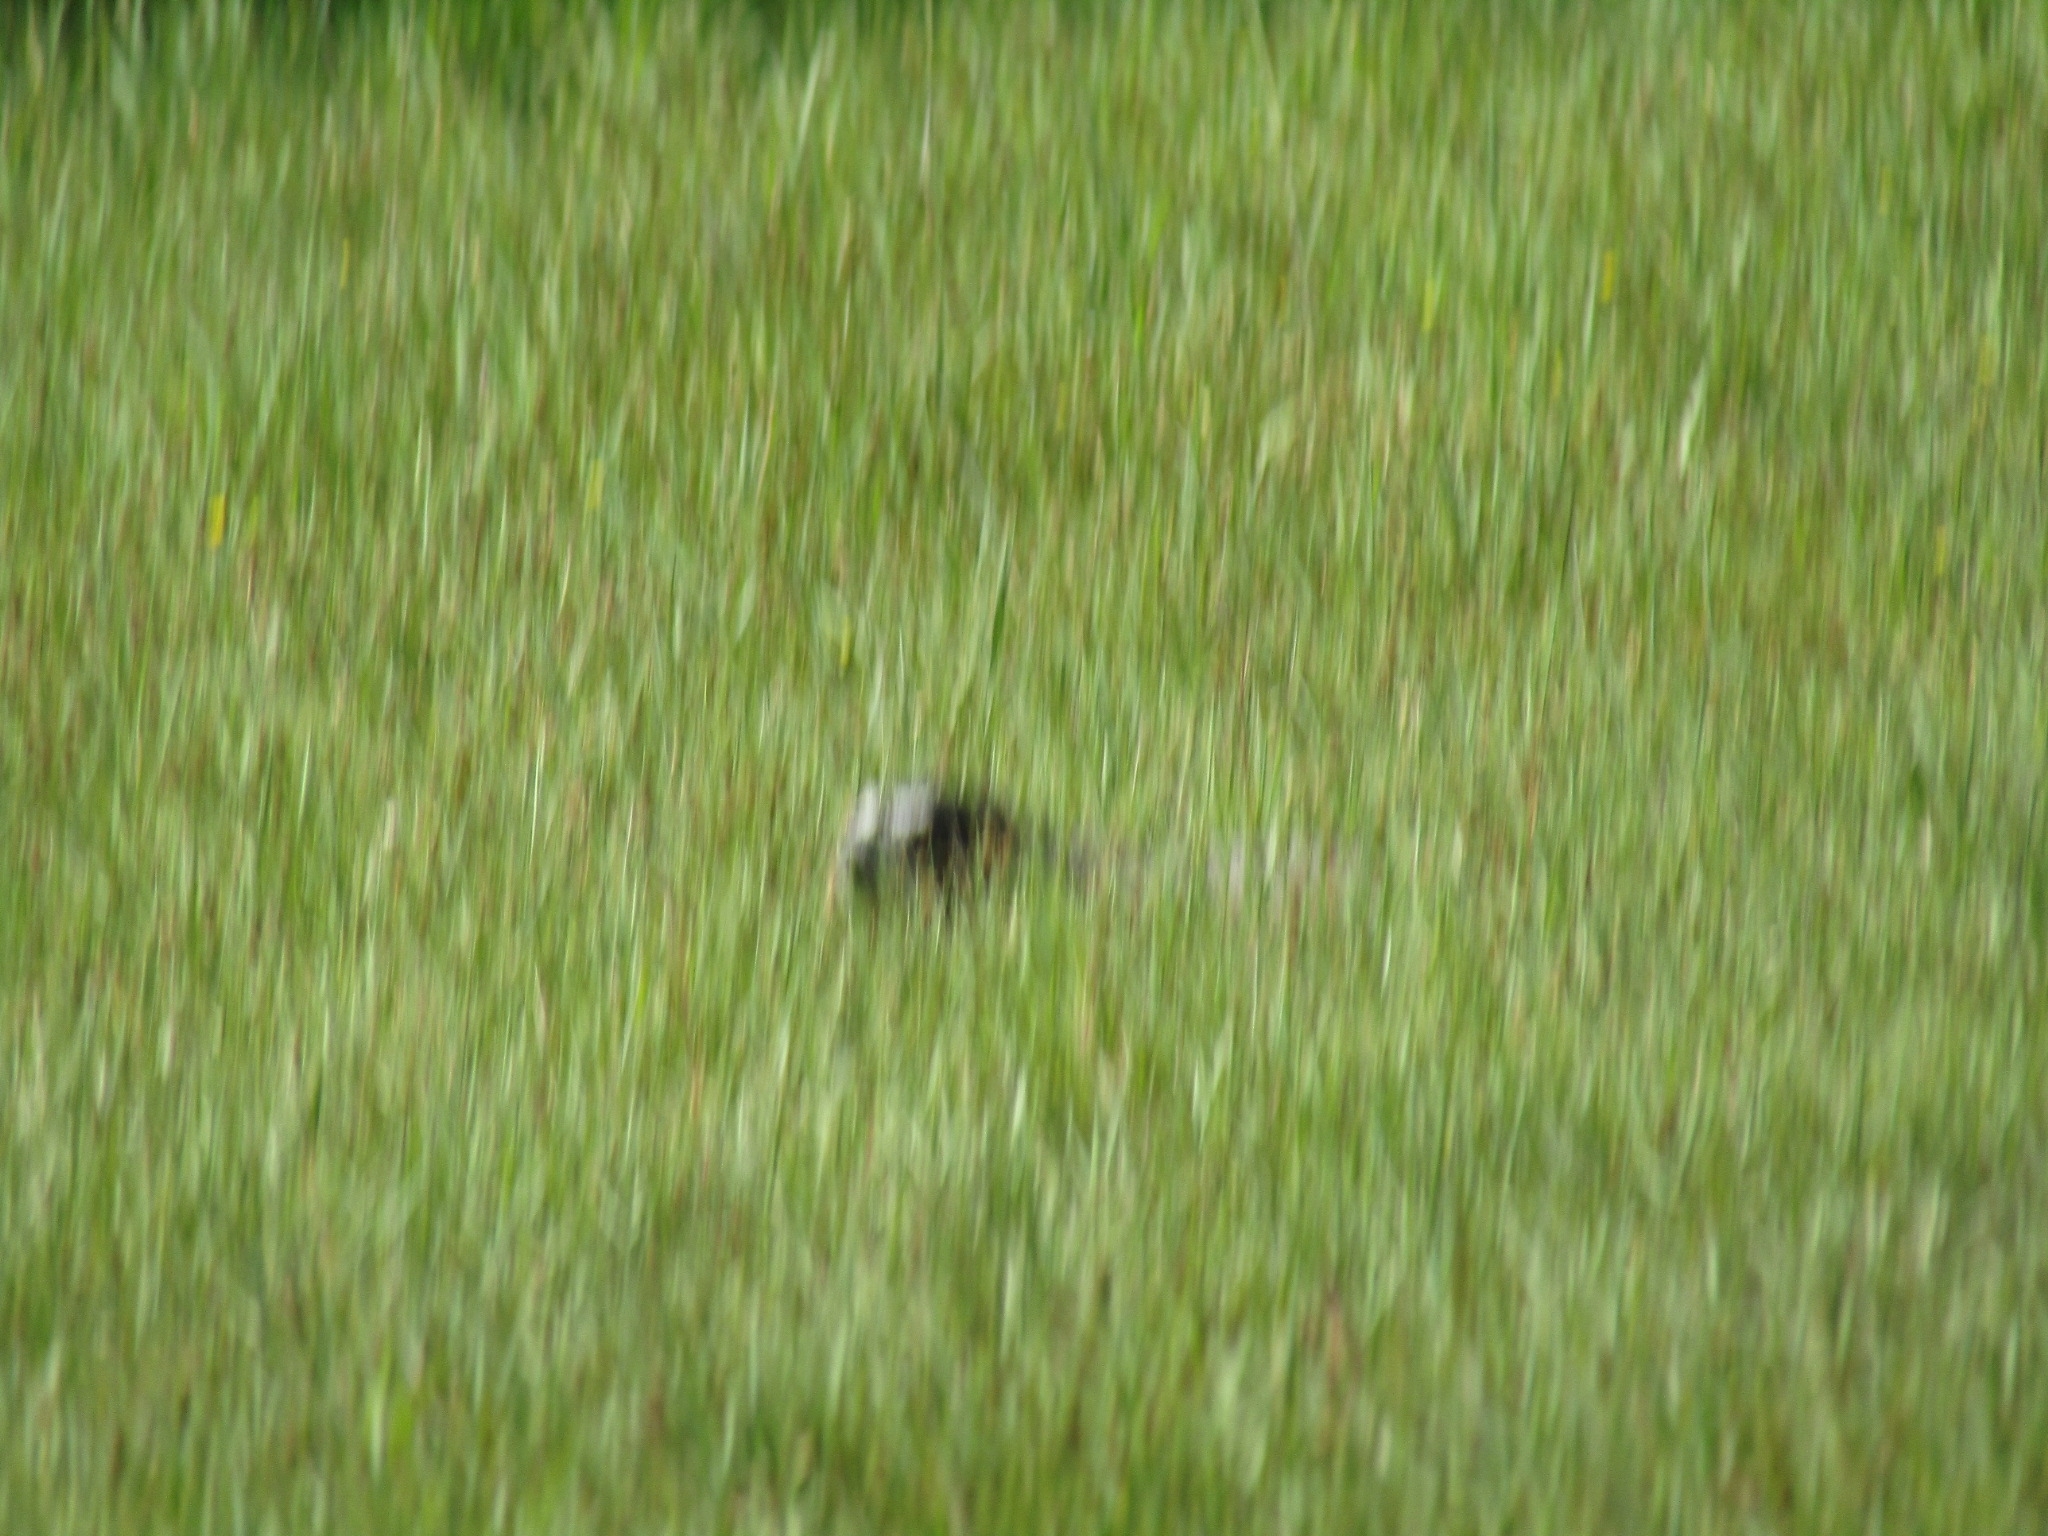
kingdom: Animalia
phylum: Chordata
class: Mammalia
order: Rodentia
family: Sciuridae
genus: Marmota
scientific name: Marmota flaviventris
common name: Yellow-bellied marmot
